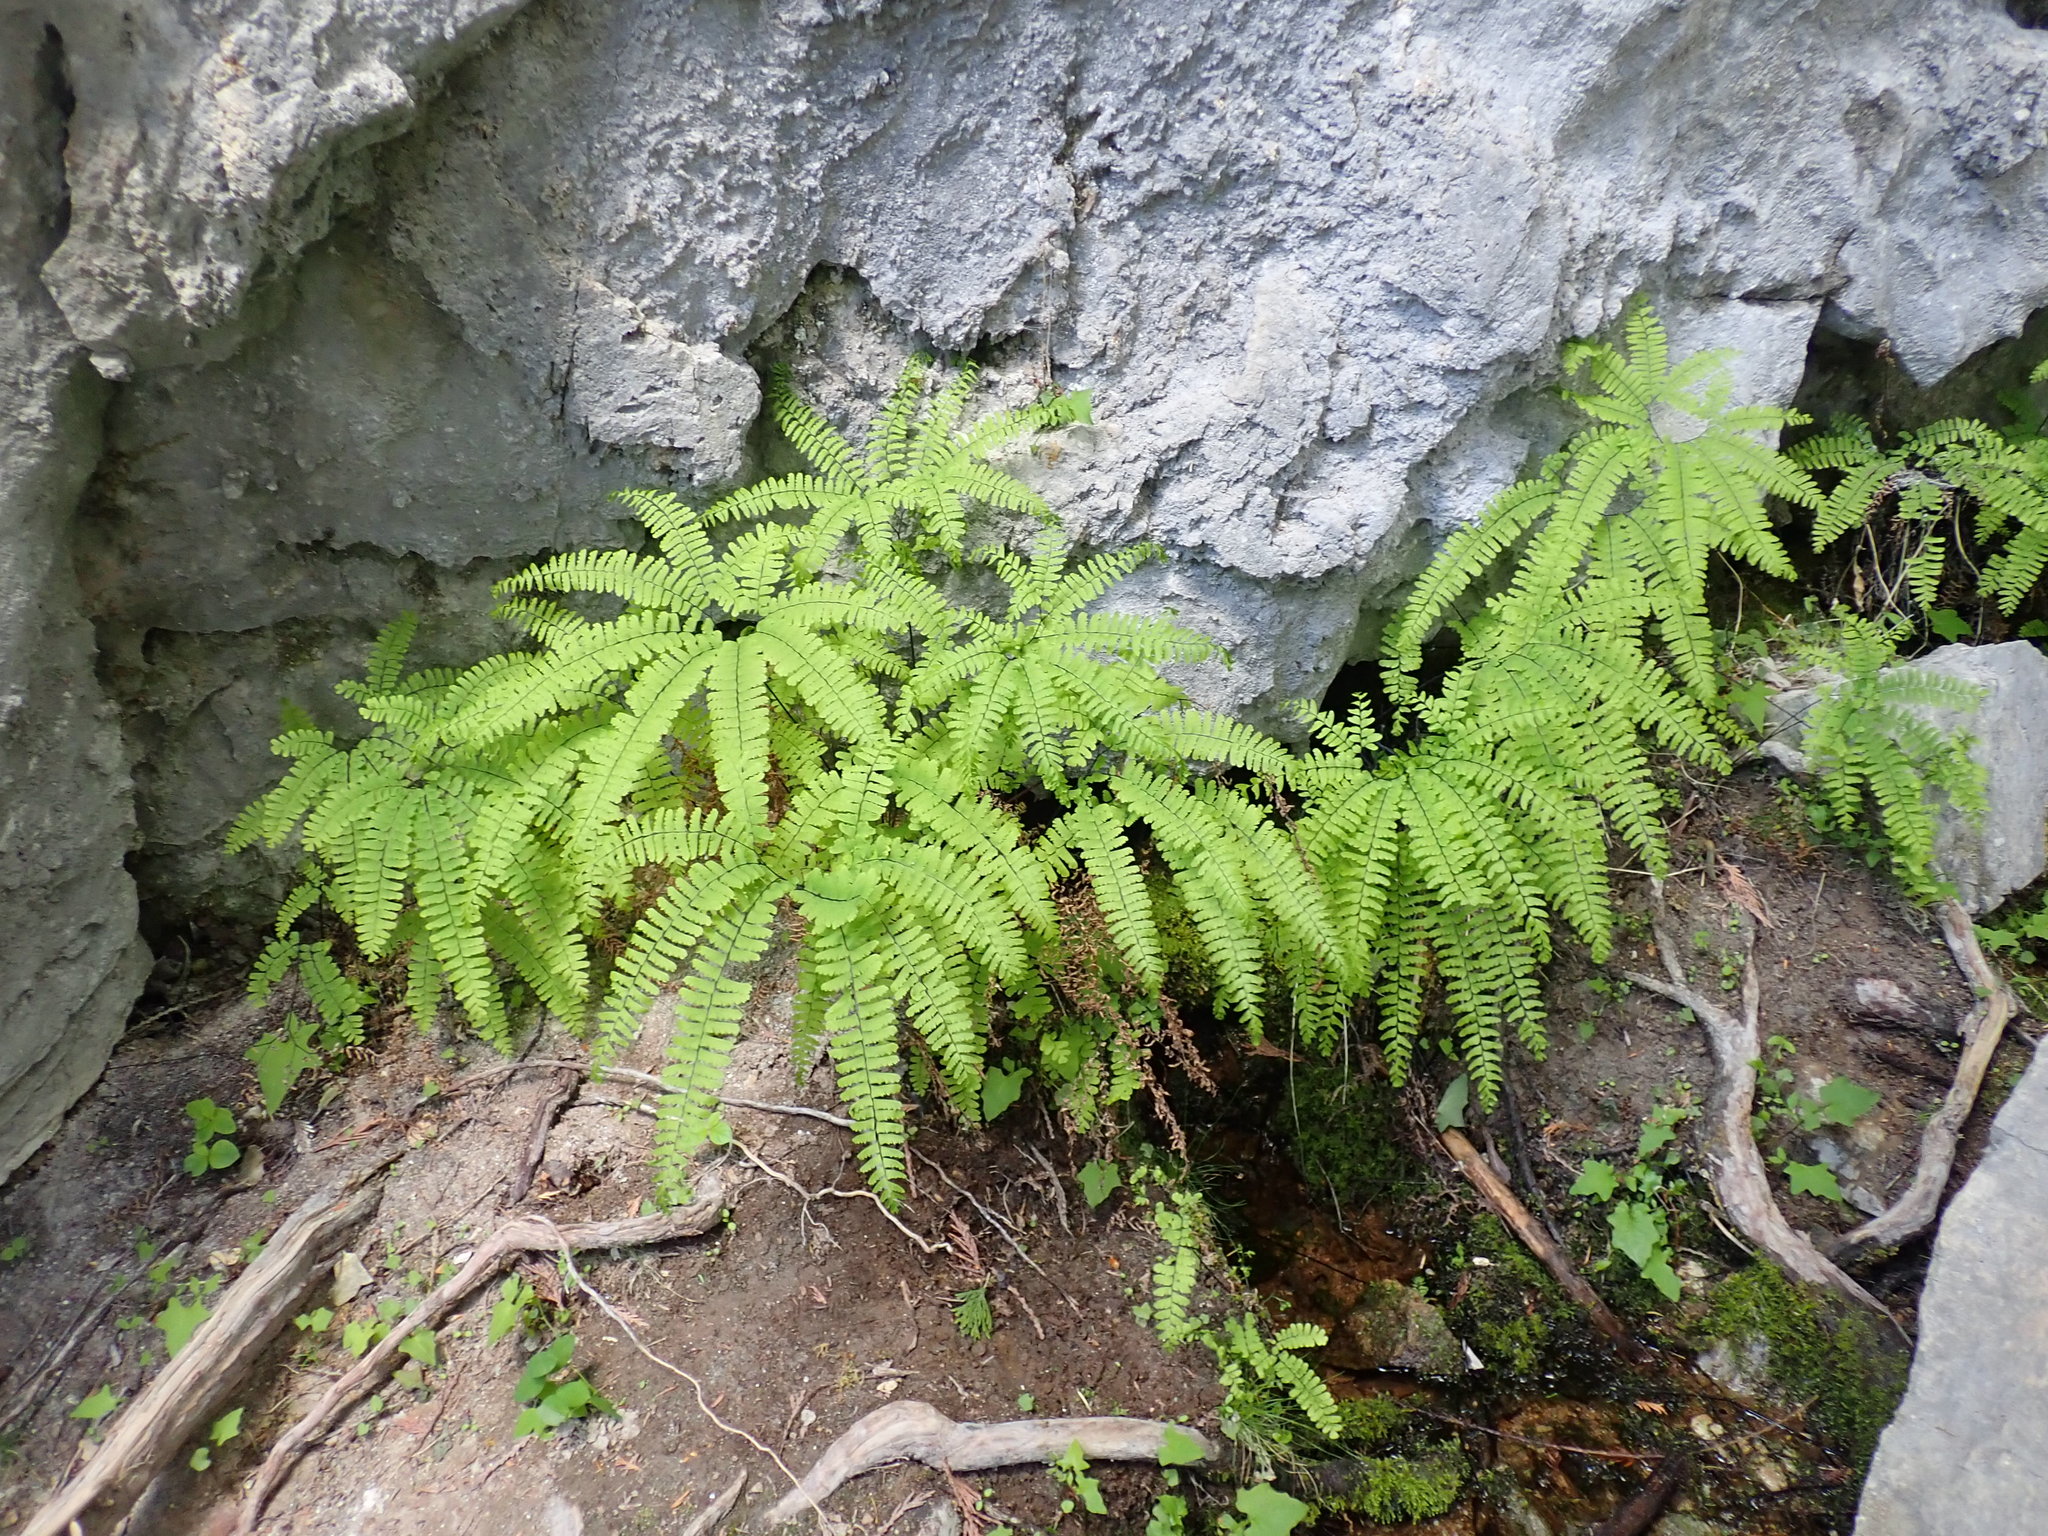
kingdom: Plantae
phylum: Tracheophyta
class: Polypodiopsida
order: Polypodiales
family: Pteridaceae
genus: Adiantum
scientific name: Adiantum aleuticum
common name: Aleutian maidenhair fern
